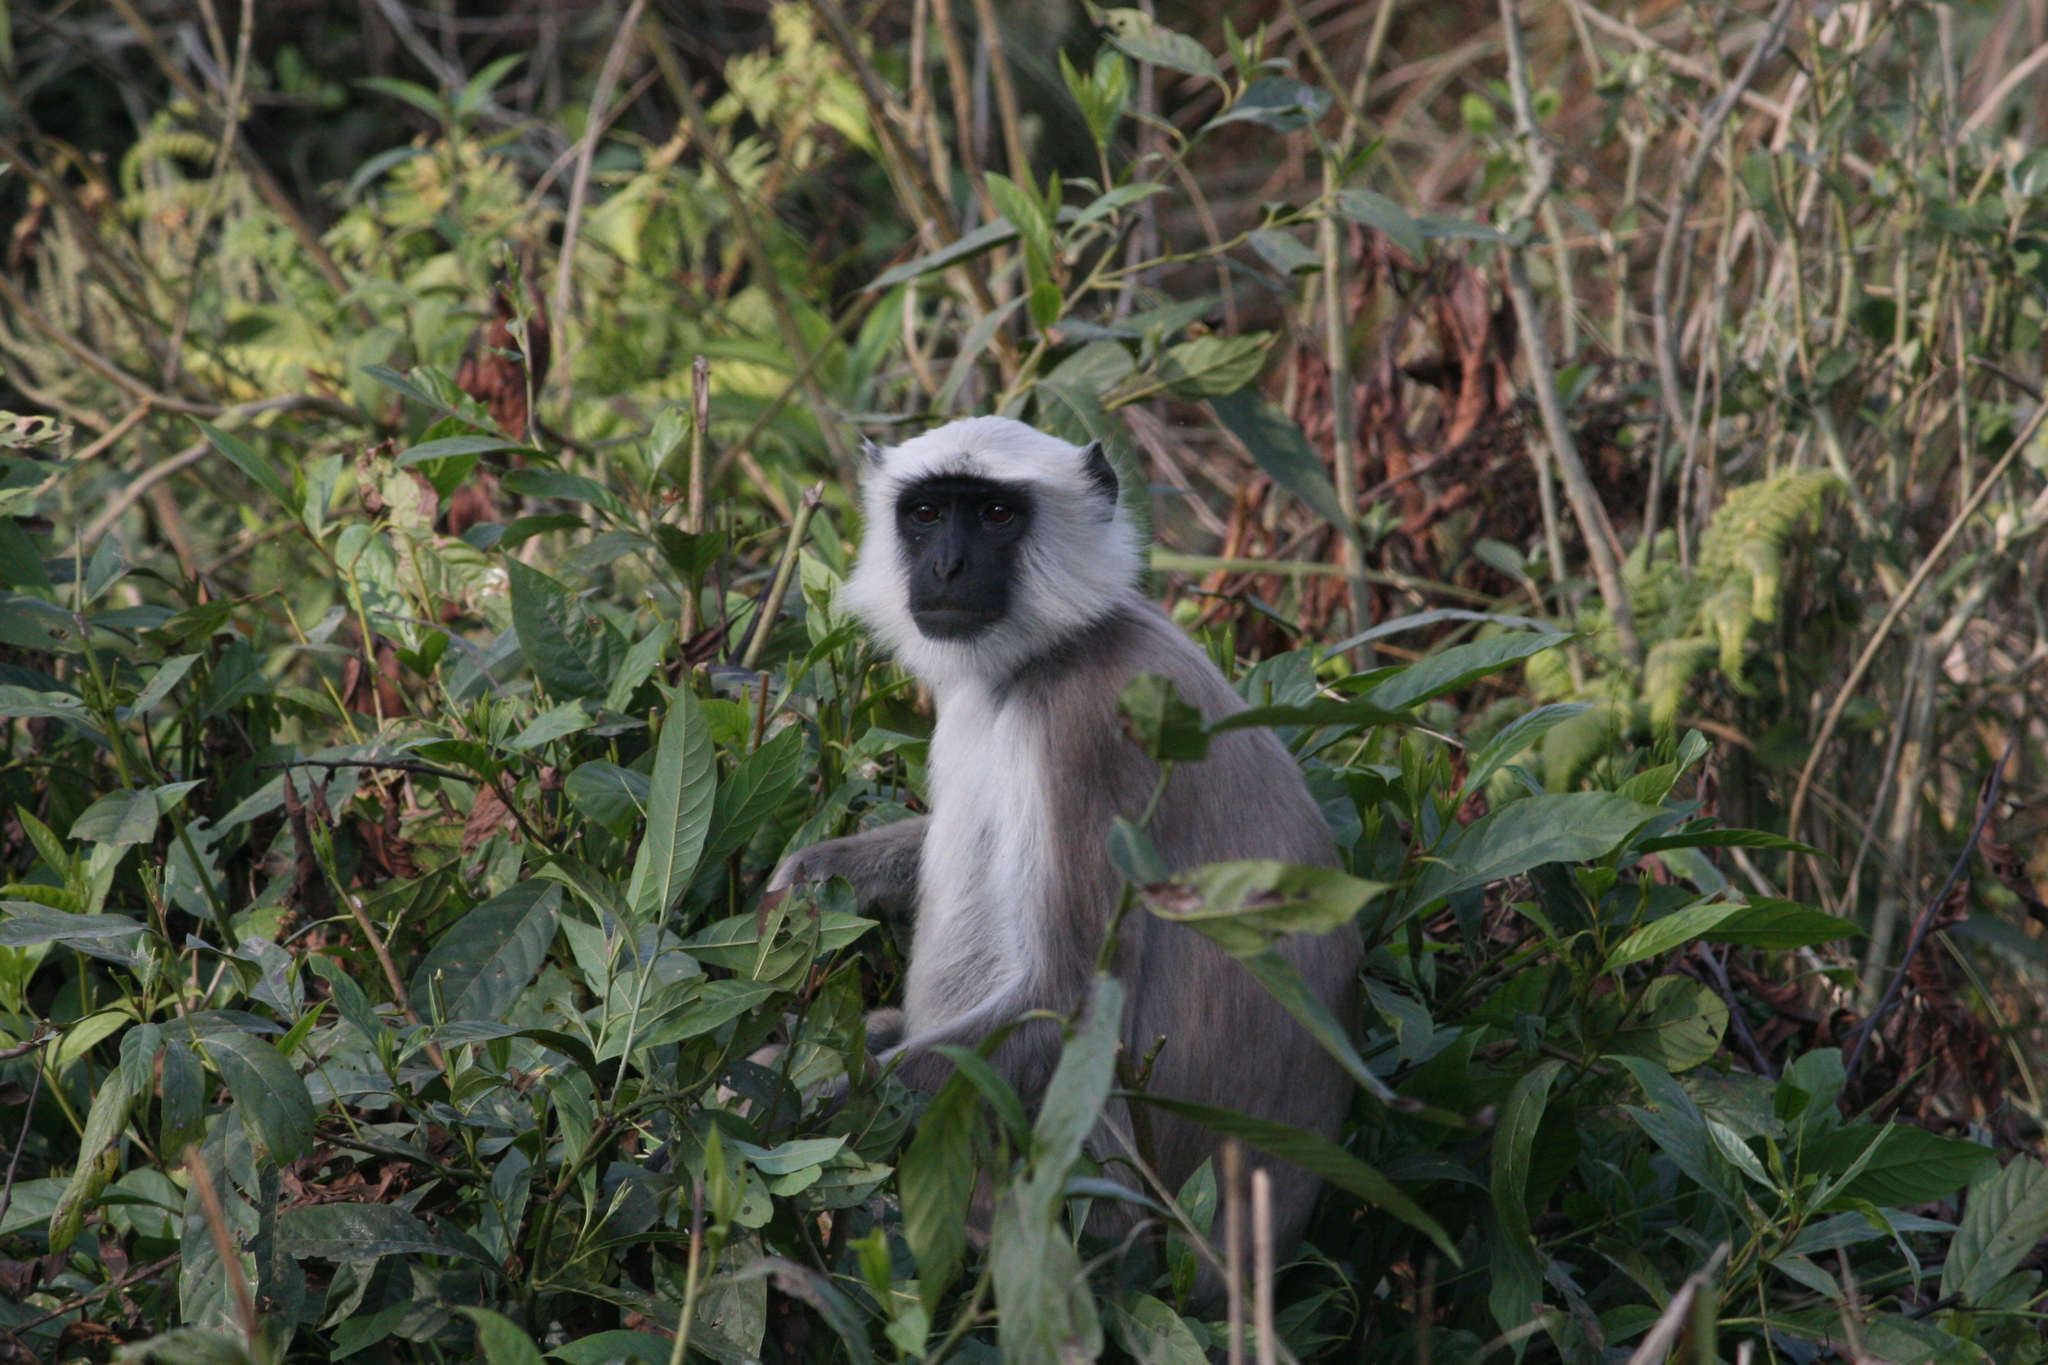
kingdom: Animalia
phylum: Chordata
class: Mammalia
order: Primates
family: Cercopithecidae
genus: Semnopithecus
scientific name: Semnopithecus schistaceus
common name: Nepal gray langur
